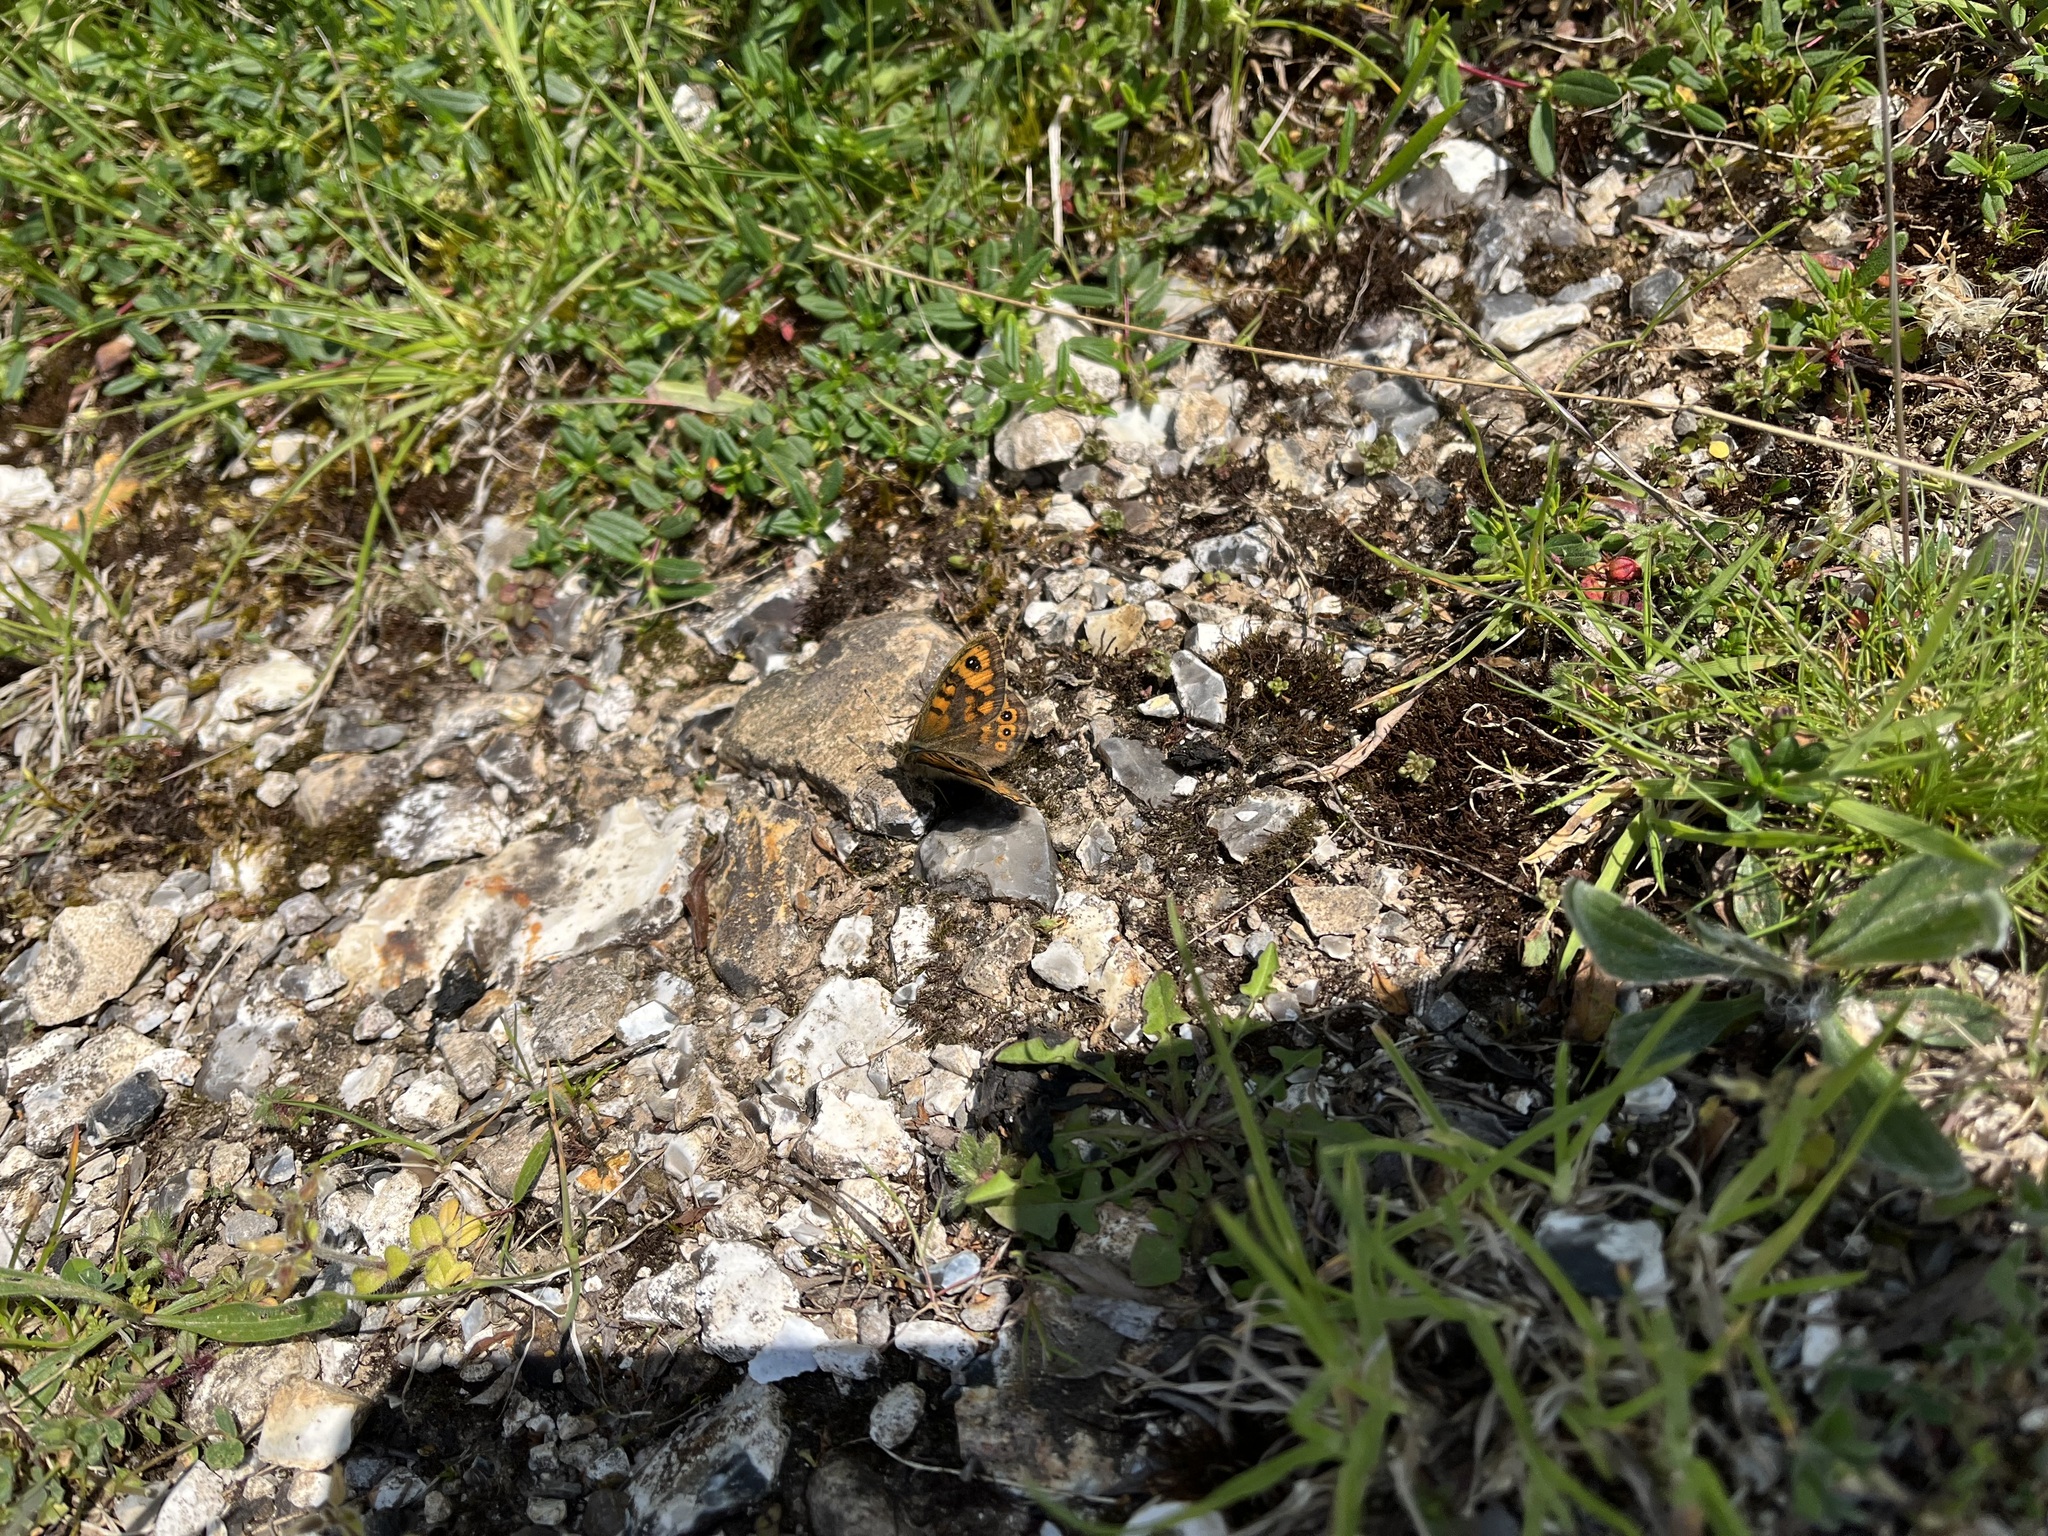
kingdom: Animalia
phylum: Arthropoda
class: Insecta
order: Lepidoptera
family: Nymphalidae
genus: Pararge
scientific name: Pararge Lasiommata megera
